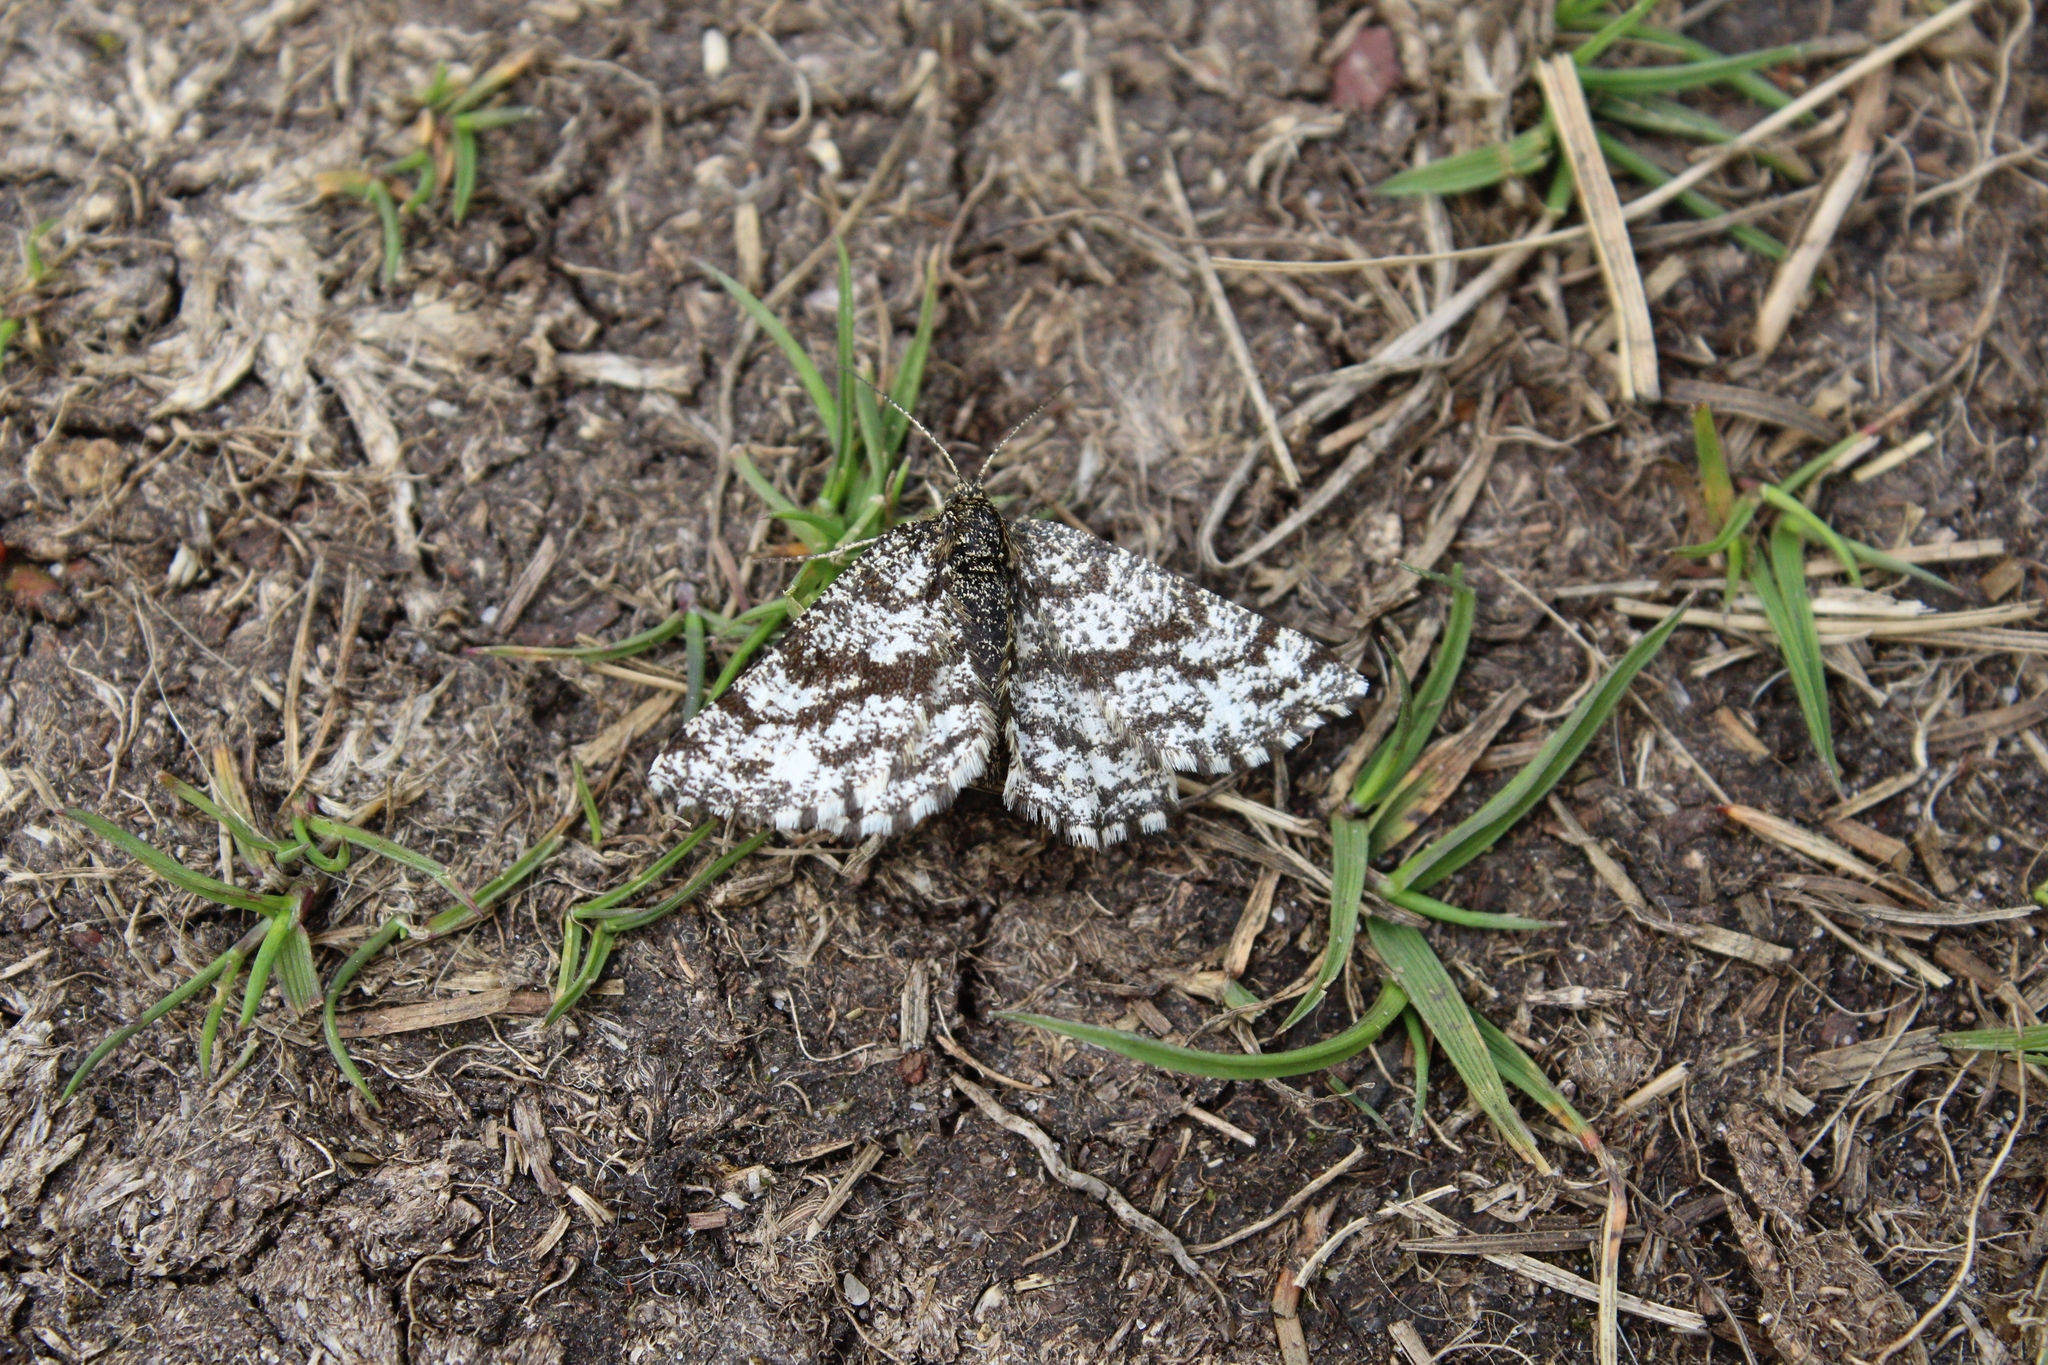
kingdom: Animalia
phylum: Arthropoda
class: Insecta
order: Lepidoptera
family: Geometridae
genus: Ematurga
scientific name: Ematurga atomaria
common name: Common heath
